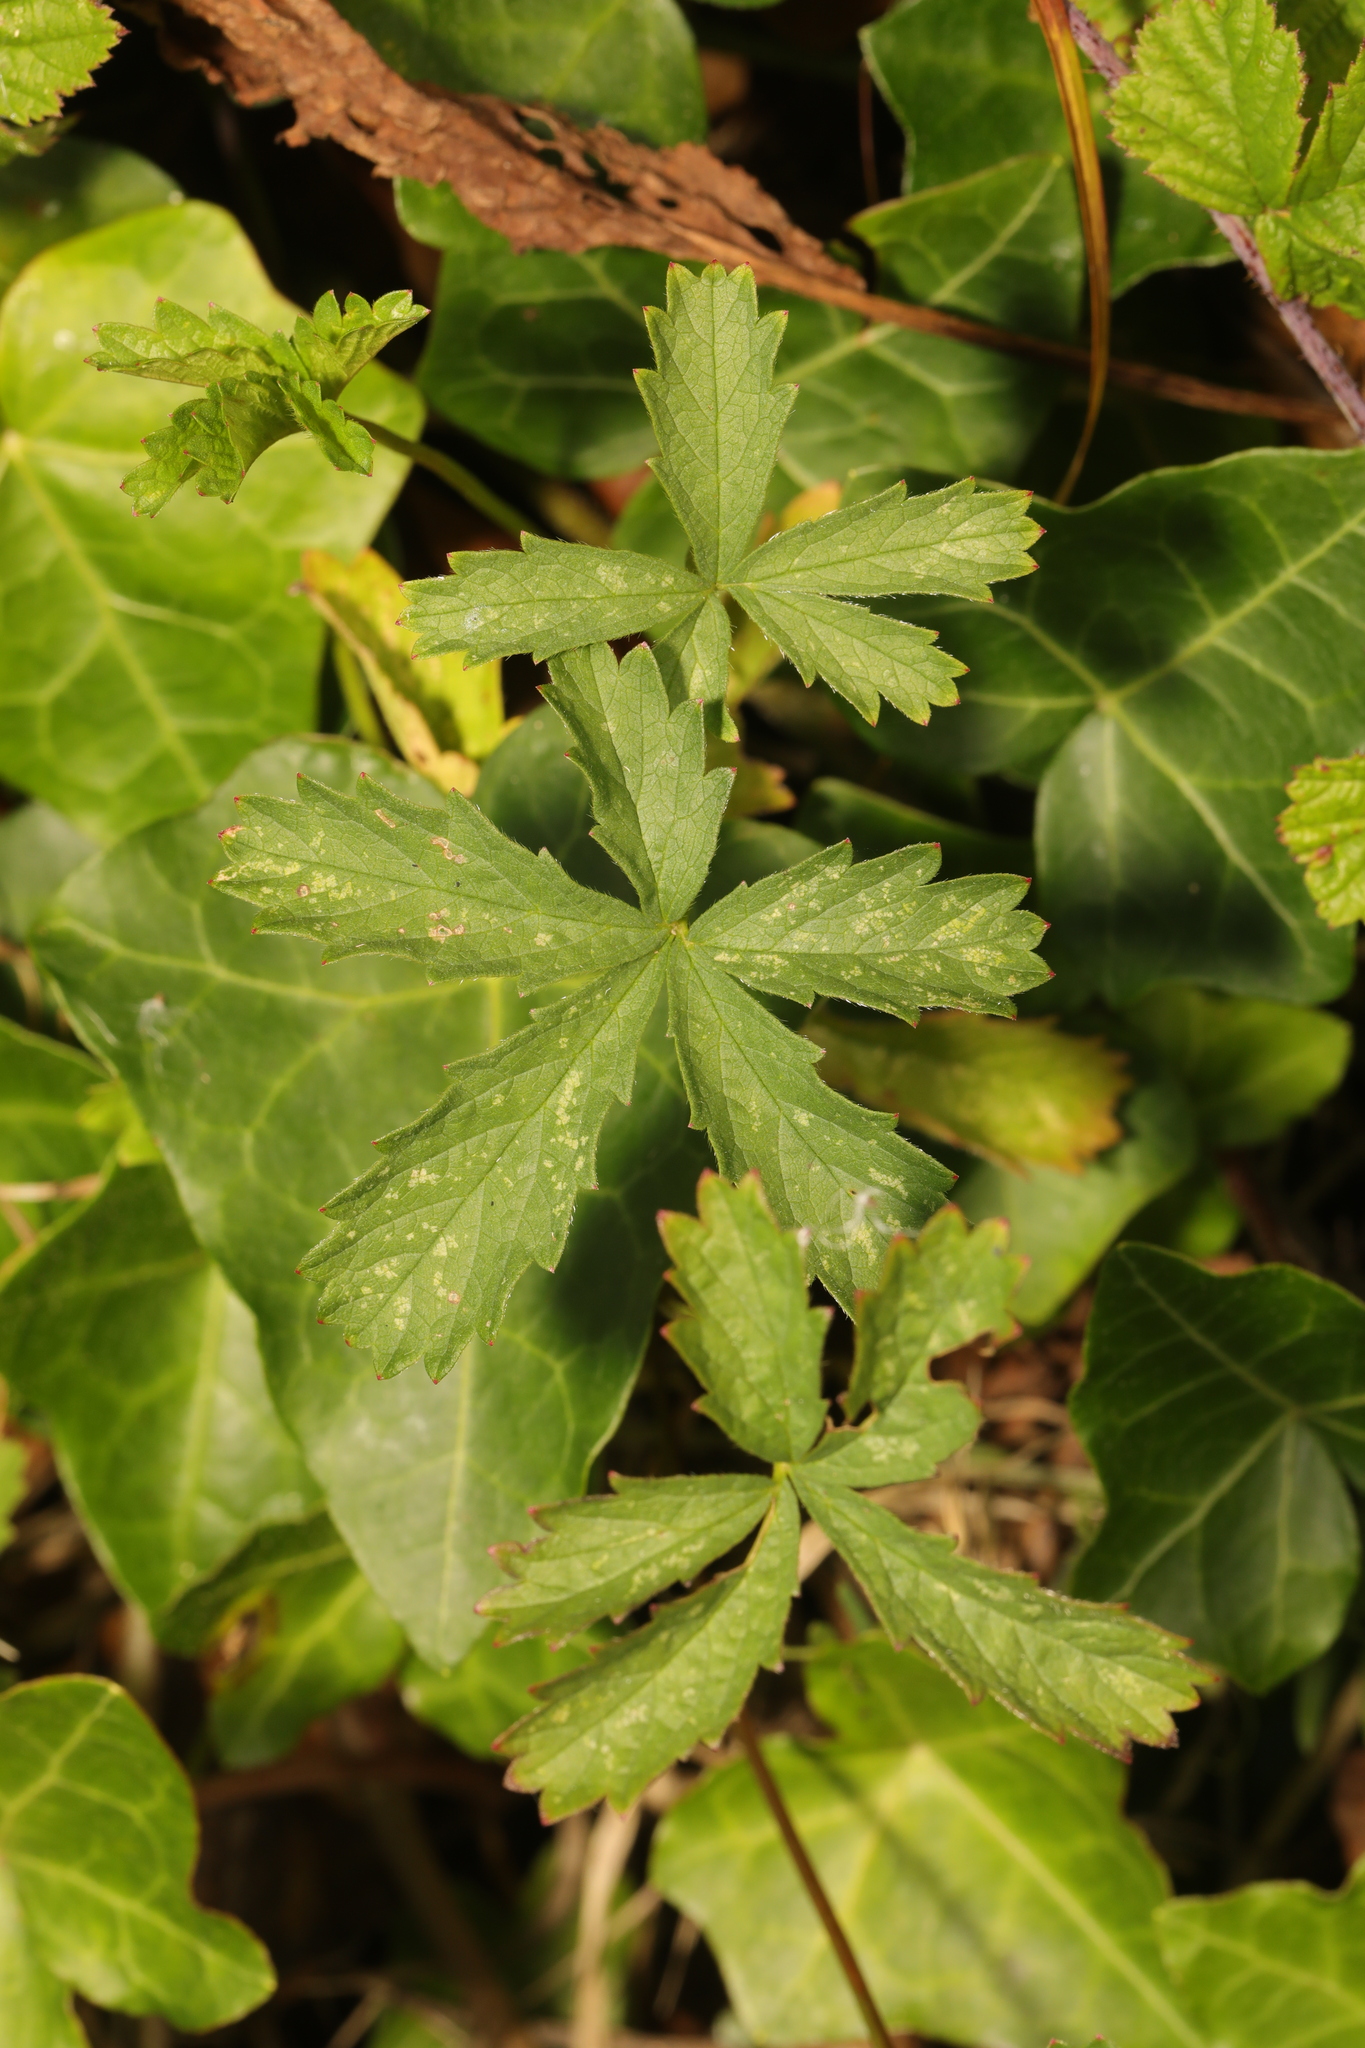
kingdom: Plantae
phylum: Tracheophyta
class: Magnoliopsida
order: Rosales
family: Rosaceae
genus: Potentilla
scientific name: Potentilla reptans
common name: Creeping cinquefoil
